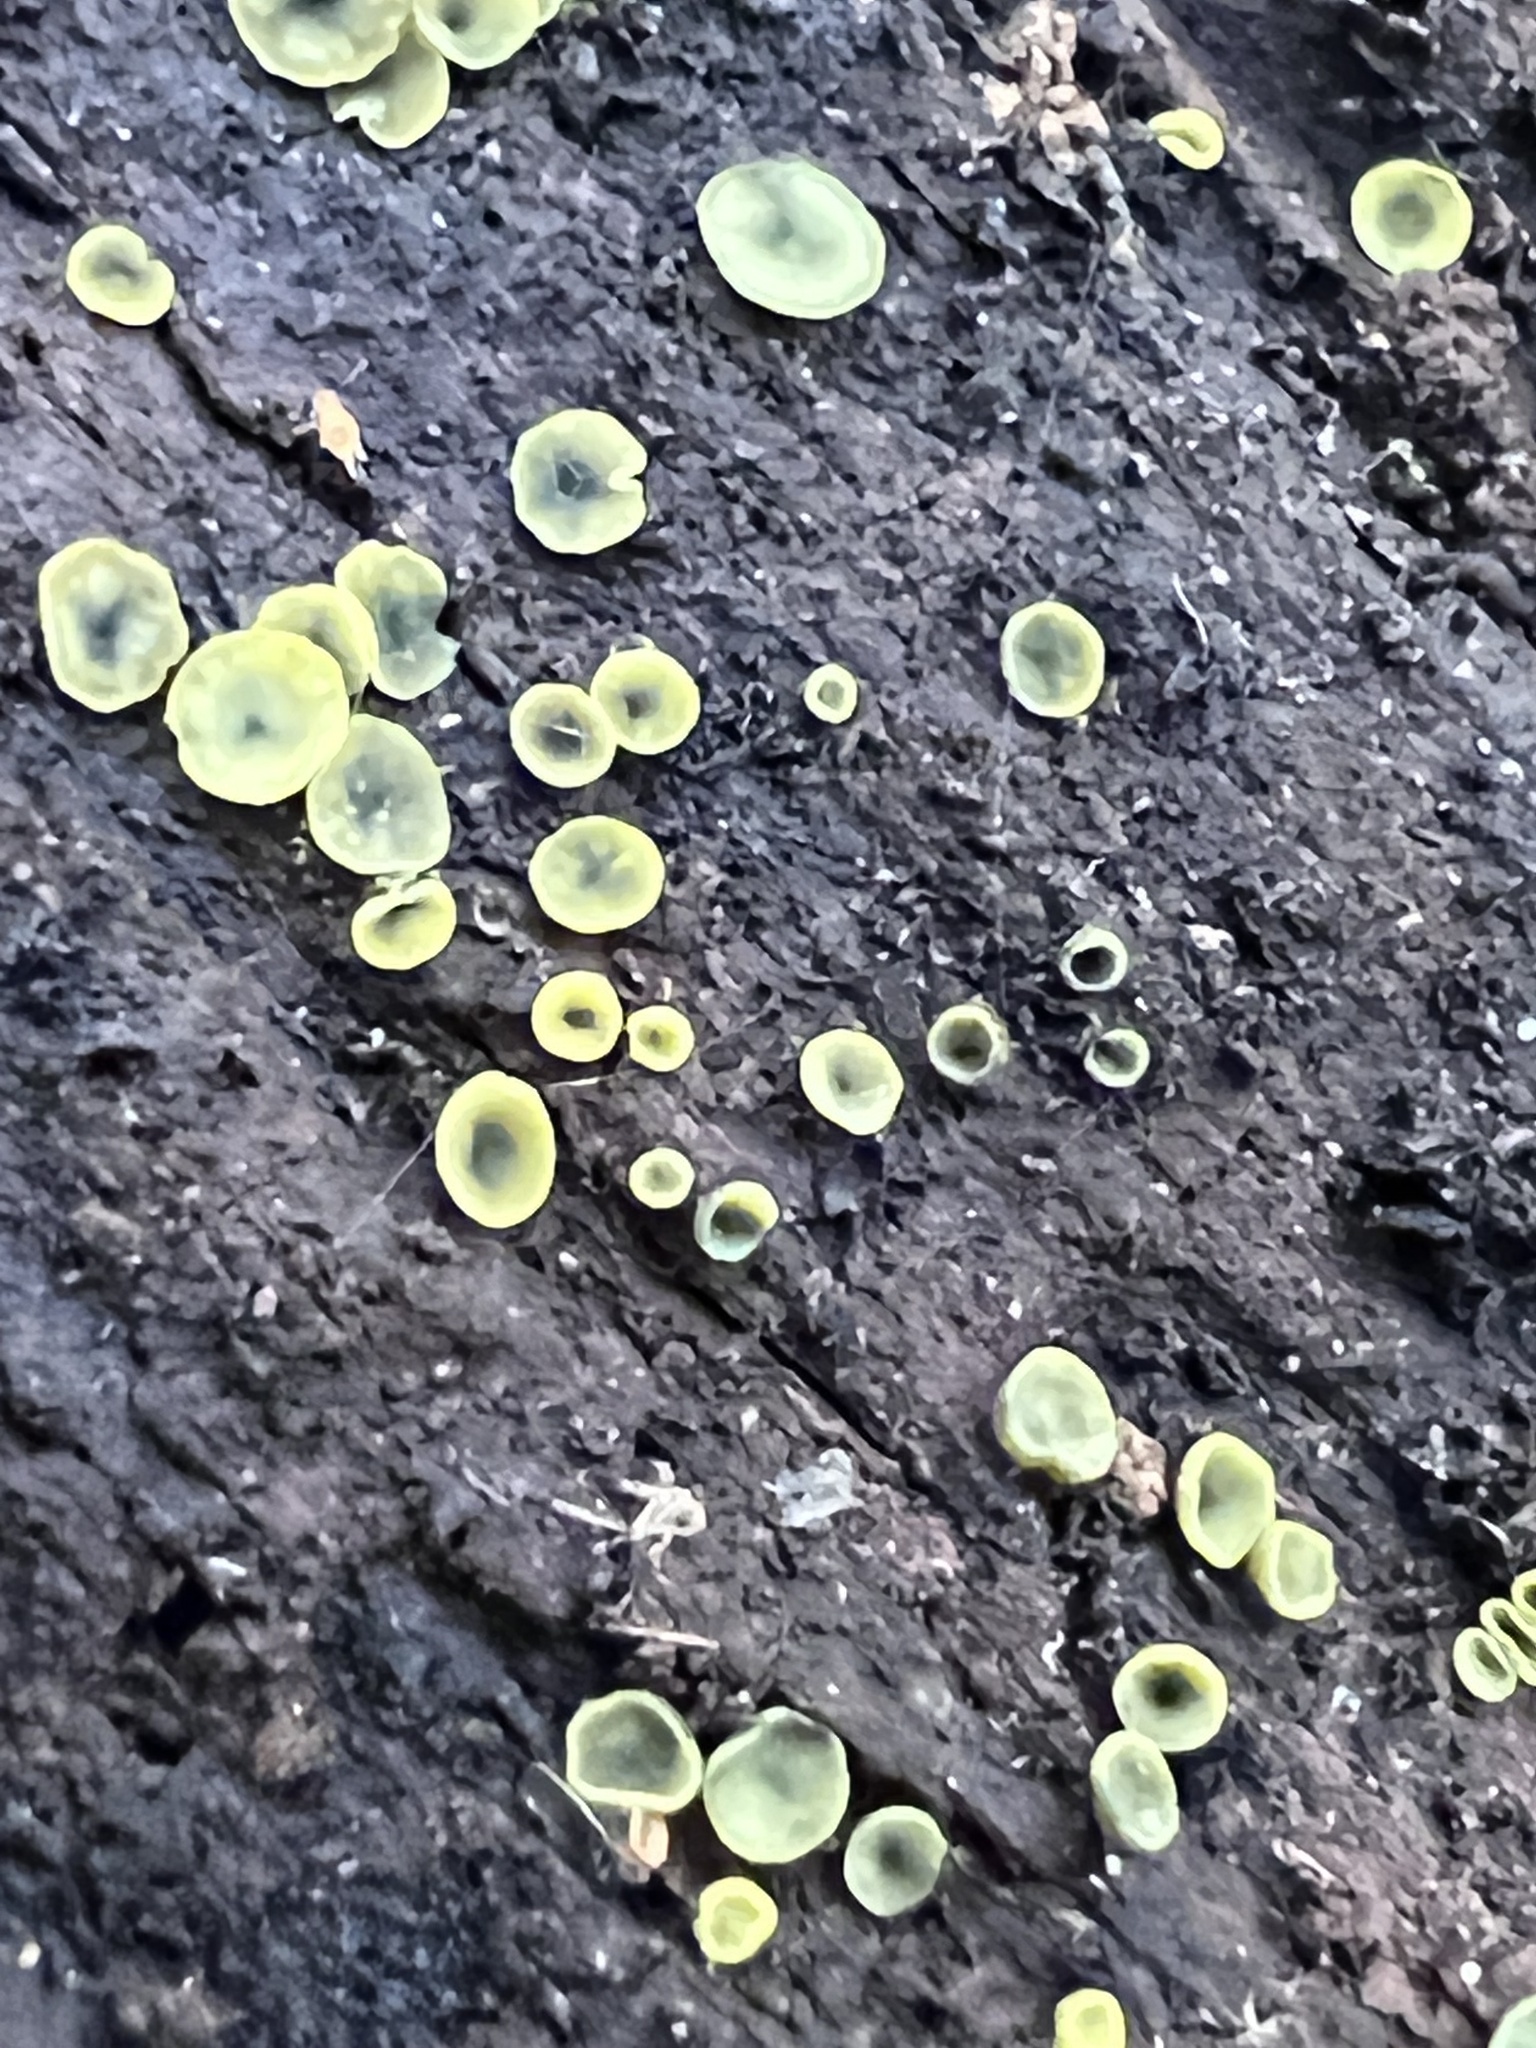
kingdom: Fungi
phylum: Ascomycota
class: Leotiomycetes
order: Helotiales
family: Chlorospleniaceae
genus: Chlorosplenium
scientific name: Chlorosplenium chlora
